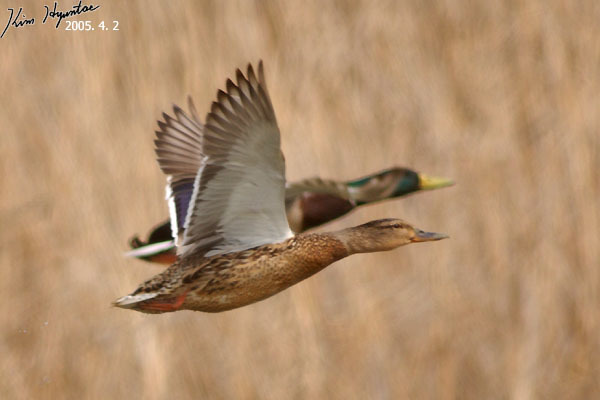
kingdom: Animalia
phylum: Chordata
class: Aves
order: Anseriformes
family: Anatidae
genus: Anas
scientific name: Anas platyrhynchos
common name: Mallard
